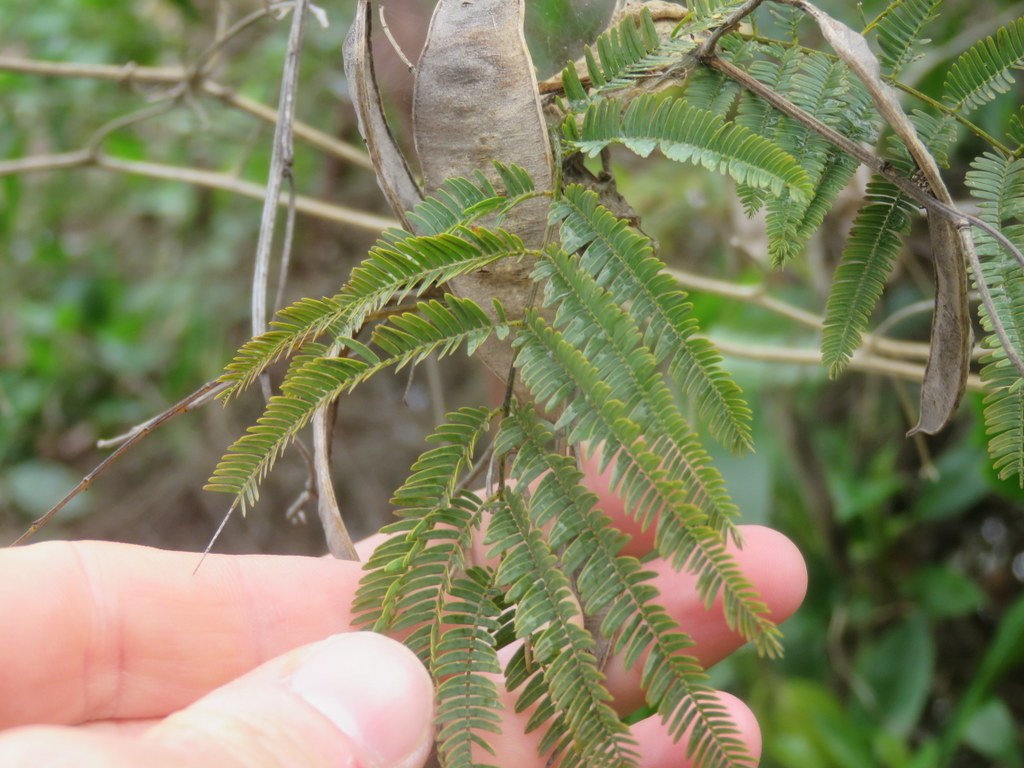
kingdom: Plantae
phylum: Tracheophyta
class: Magnoliopsida
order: Fabales
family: Fabaceae
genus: Senegalia
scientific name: Senegalia bonariensis
